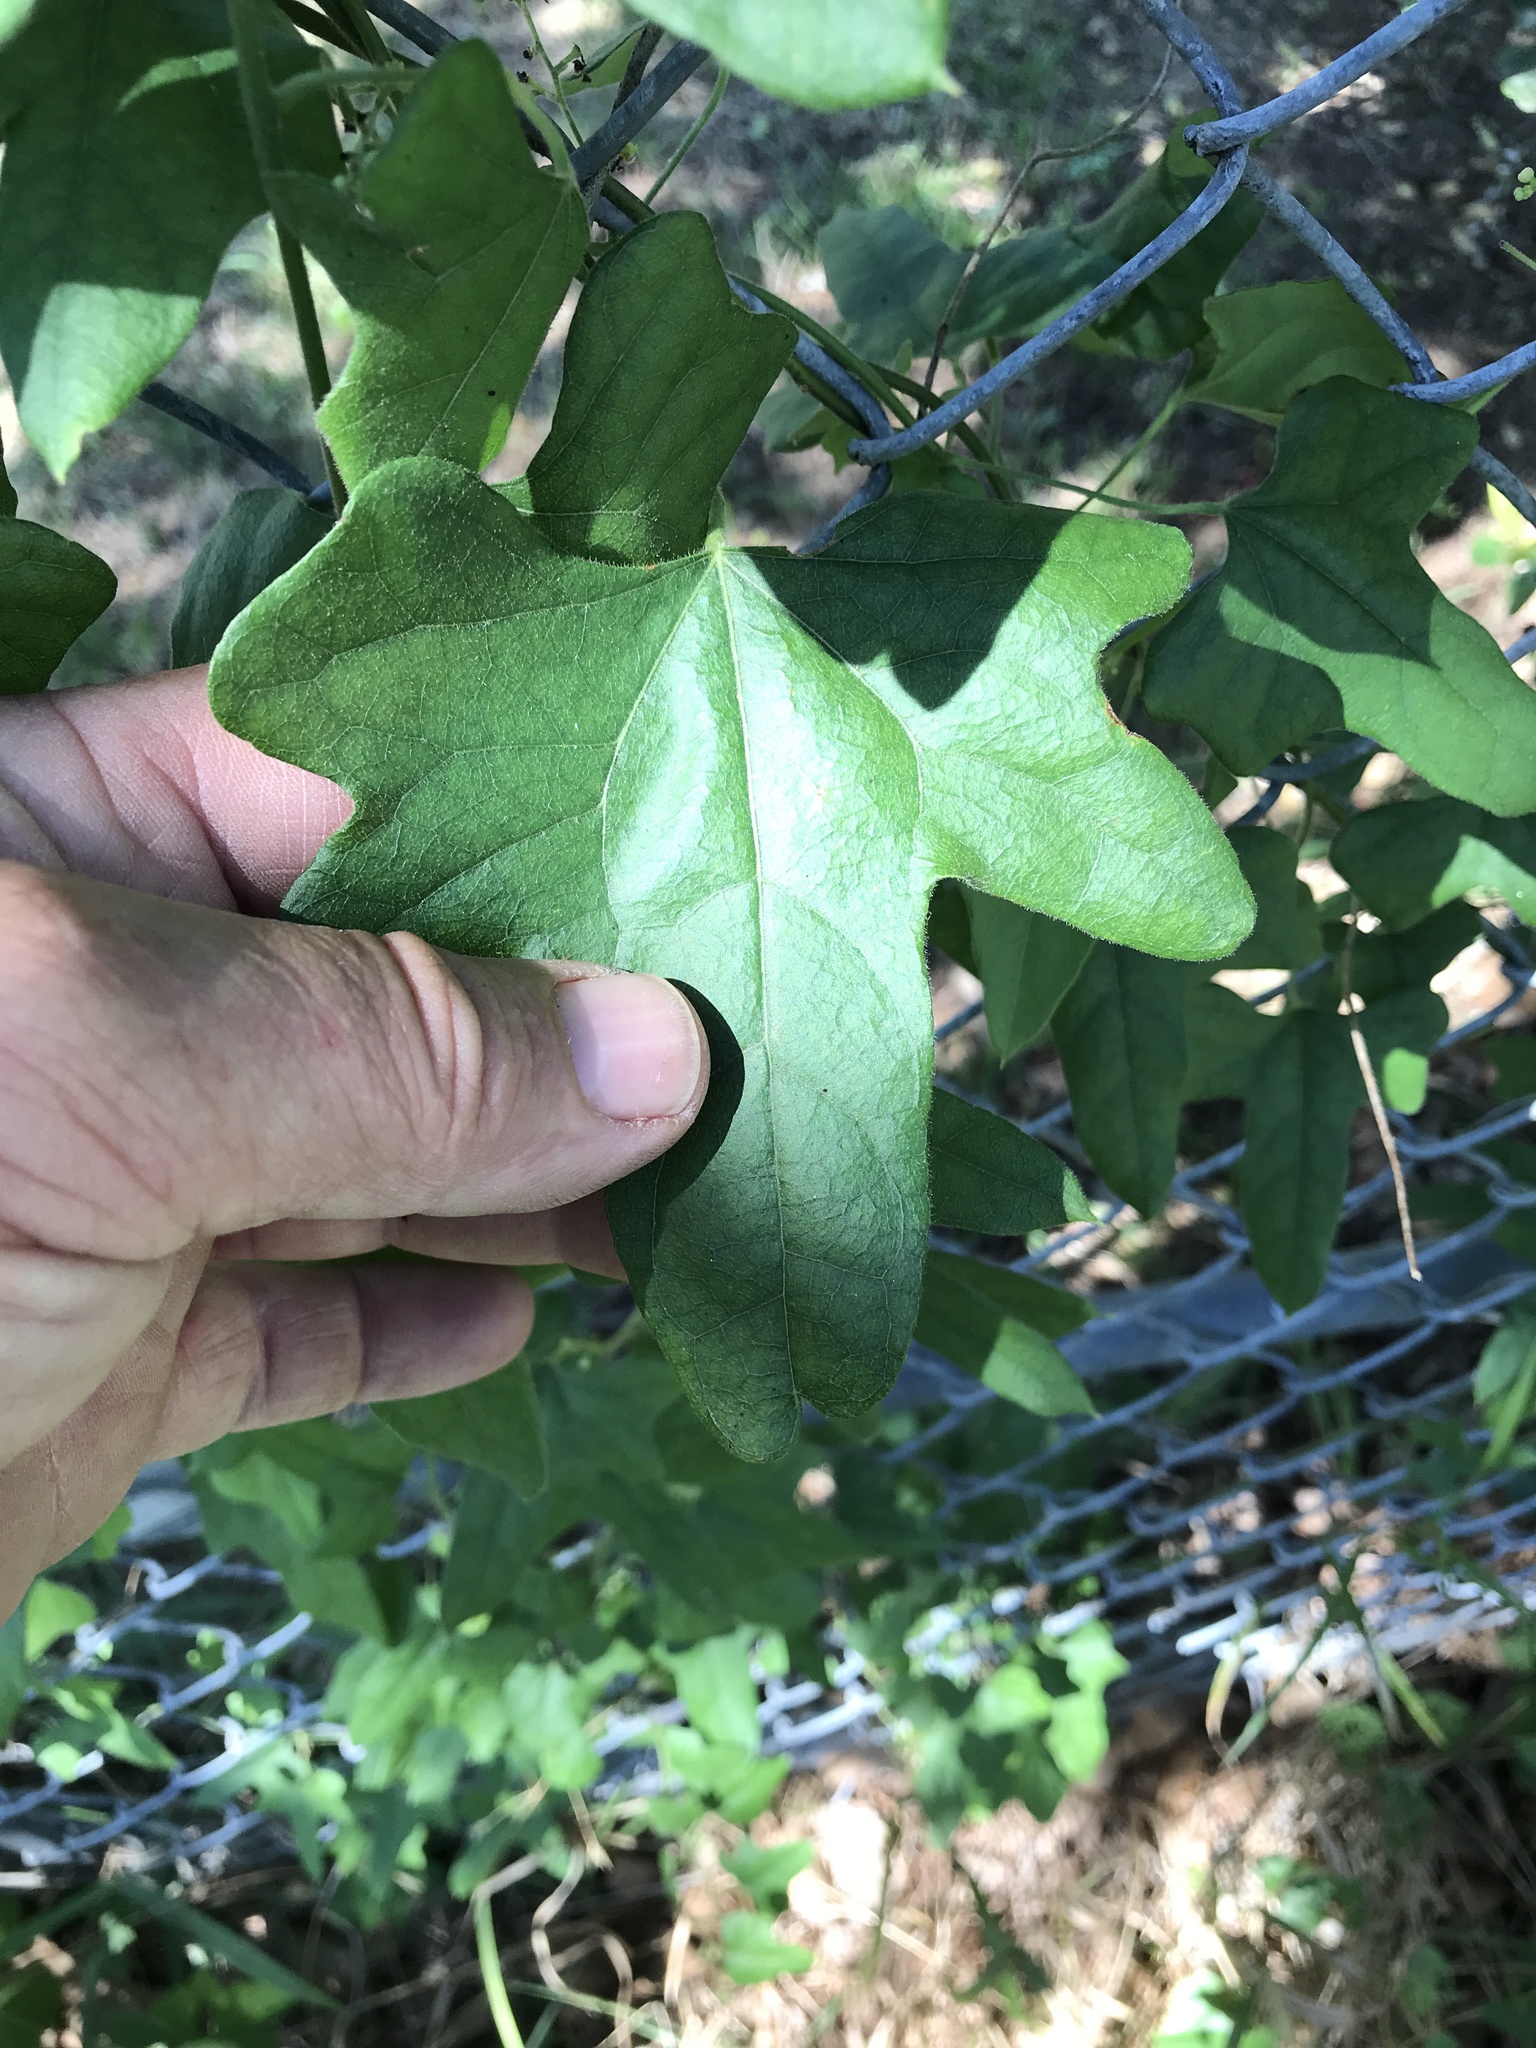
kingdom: Plantae
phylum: Tracheophyta
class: Magnoliopsida
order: Ranunculales
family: Menispermaceae
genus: Cocculus
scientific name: Cocculus carolinus
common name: Carolina moonseed
